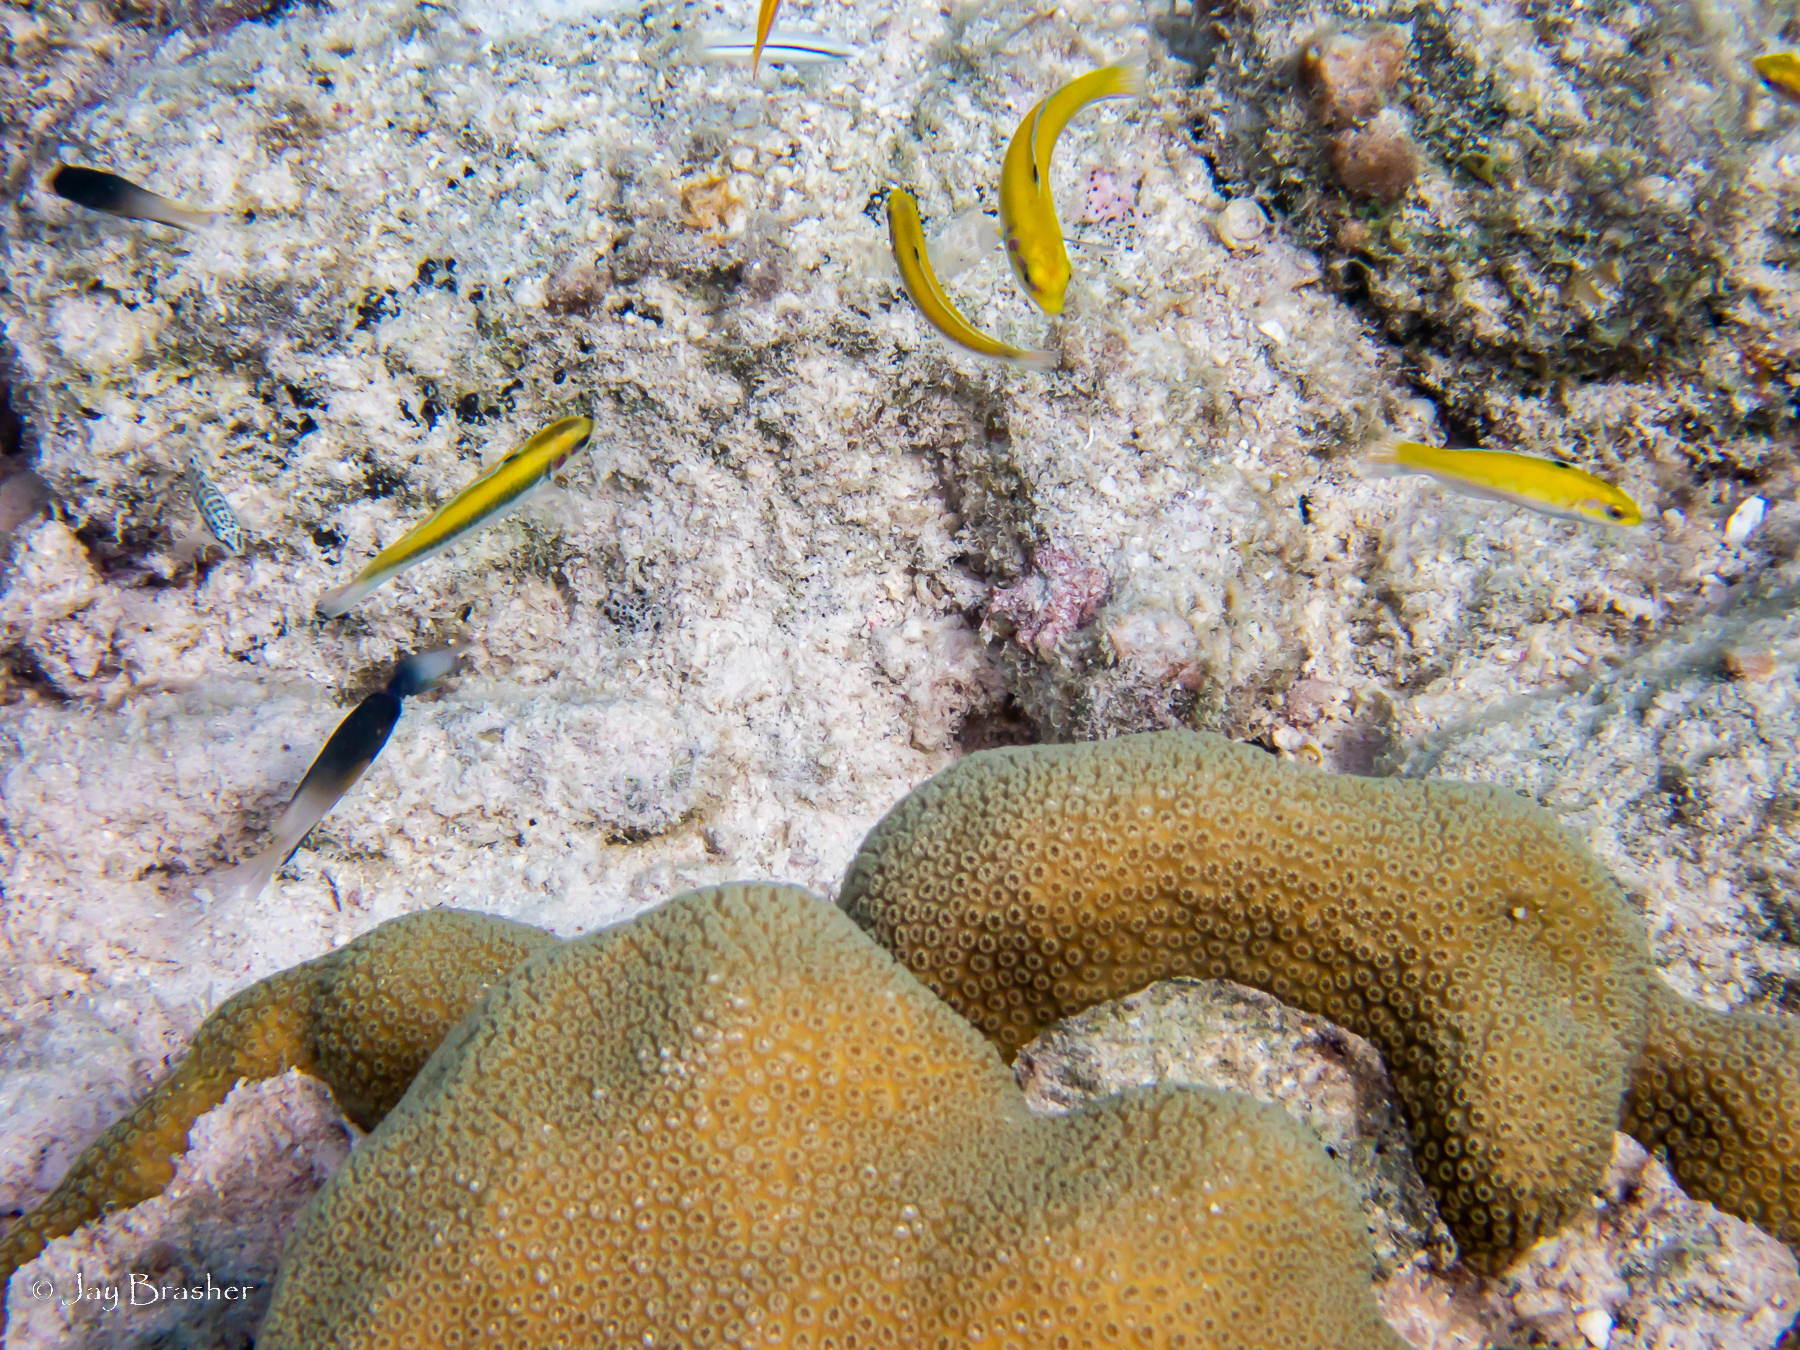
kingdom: Animalia
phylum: Chordata
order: Perciformes
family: Labridae
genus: Thalassoma
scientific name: Thalassoma bifasciatum
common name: Bluehead wrasse
